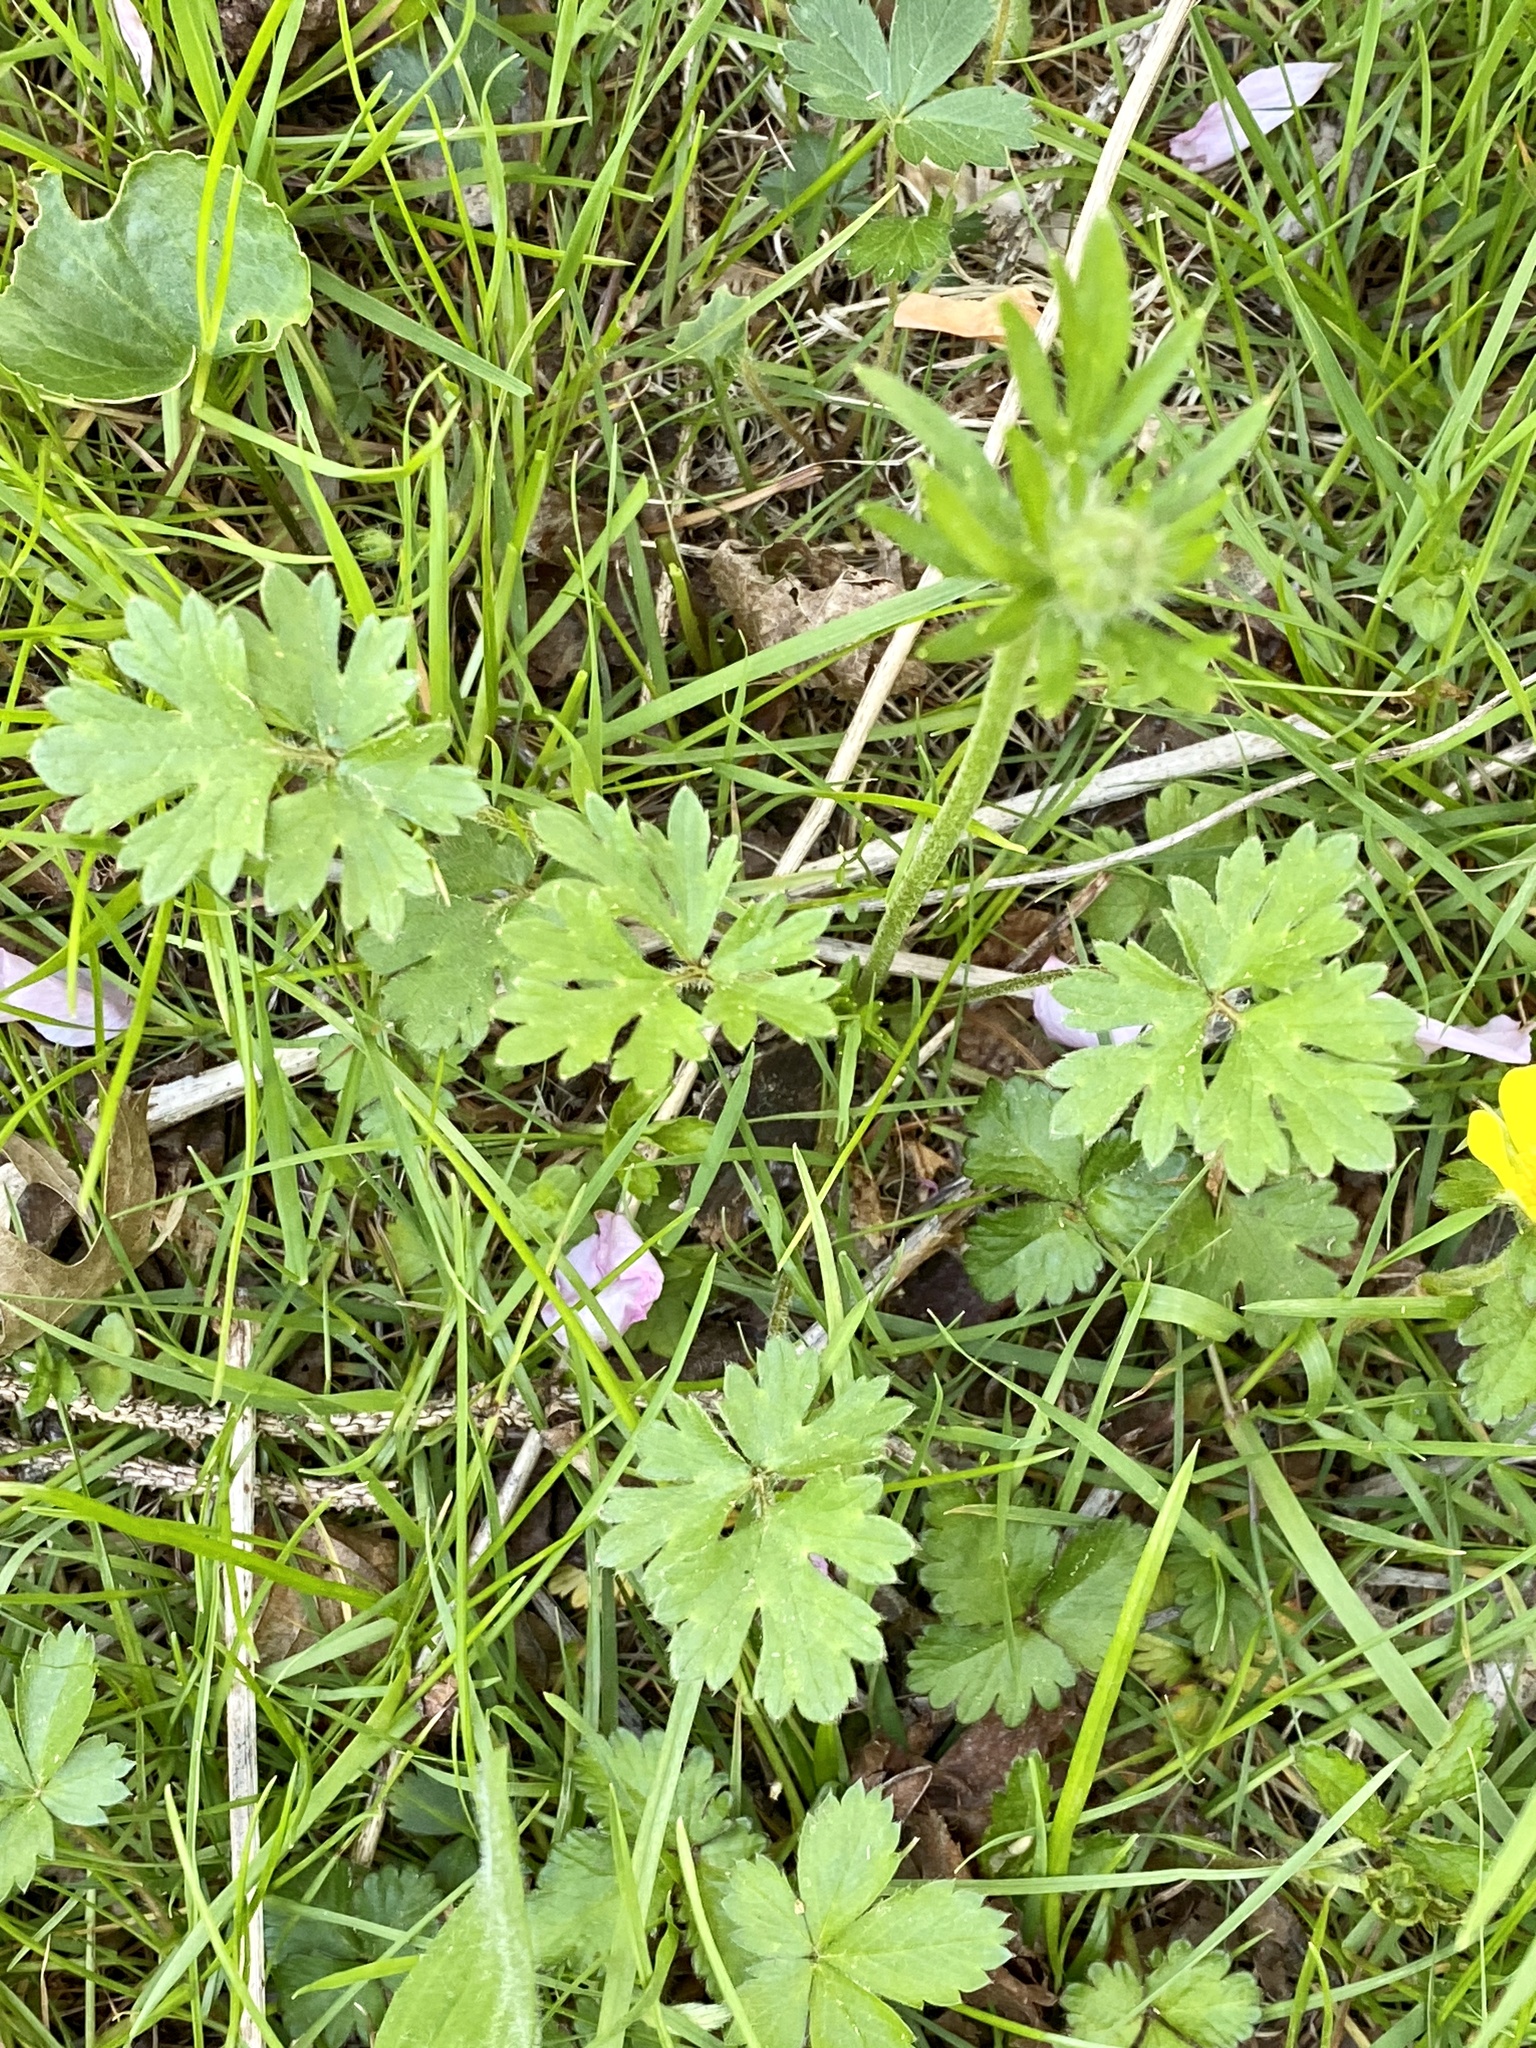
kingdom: Plantae
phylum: Tracheophyta
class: Magnoliopsida
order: Ranunculales
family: Ranunculaceae
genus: Ranunculus
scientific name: Ranunculus repens
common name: Creeping buttercup
